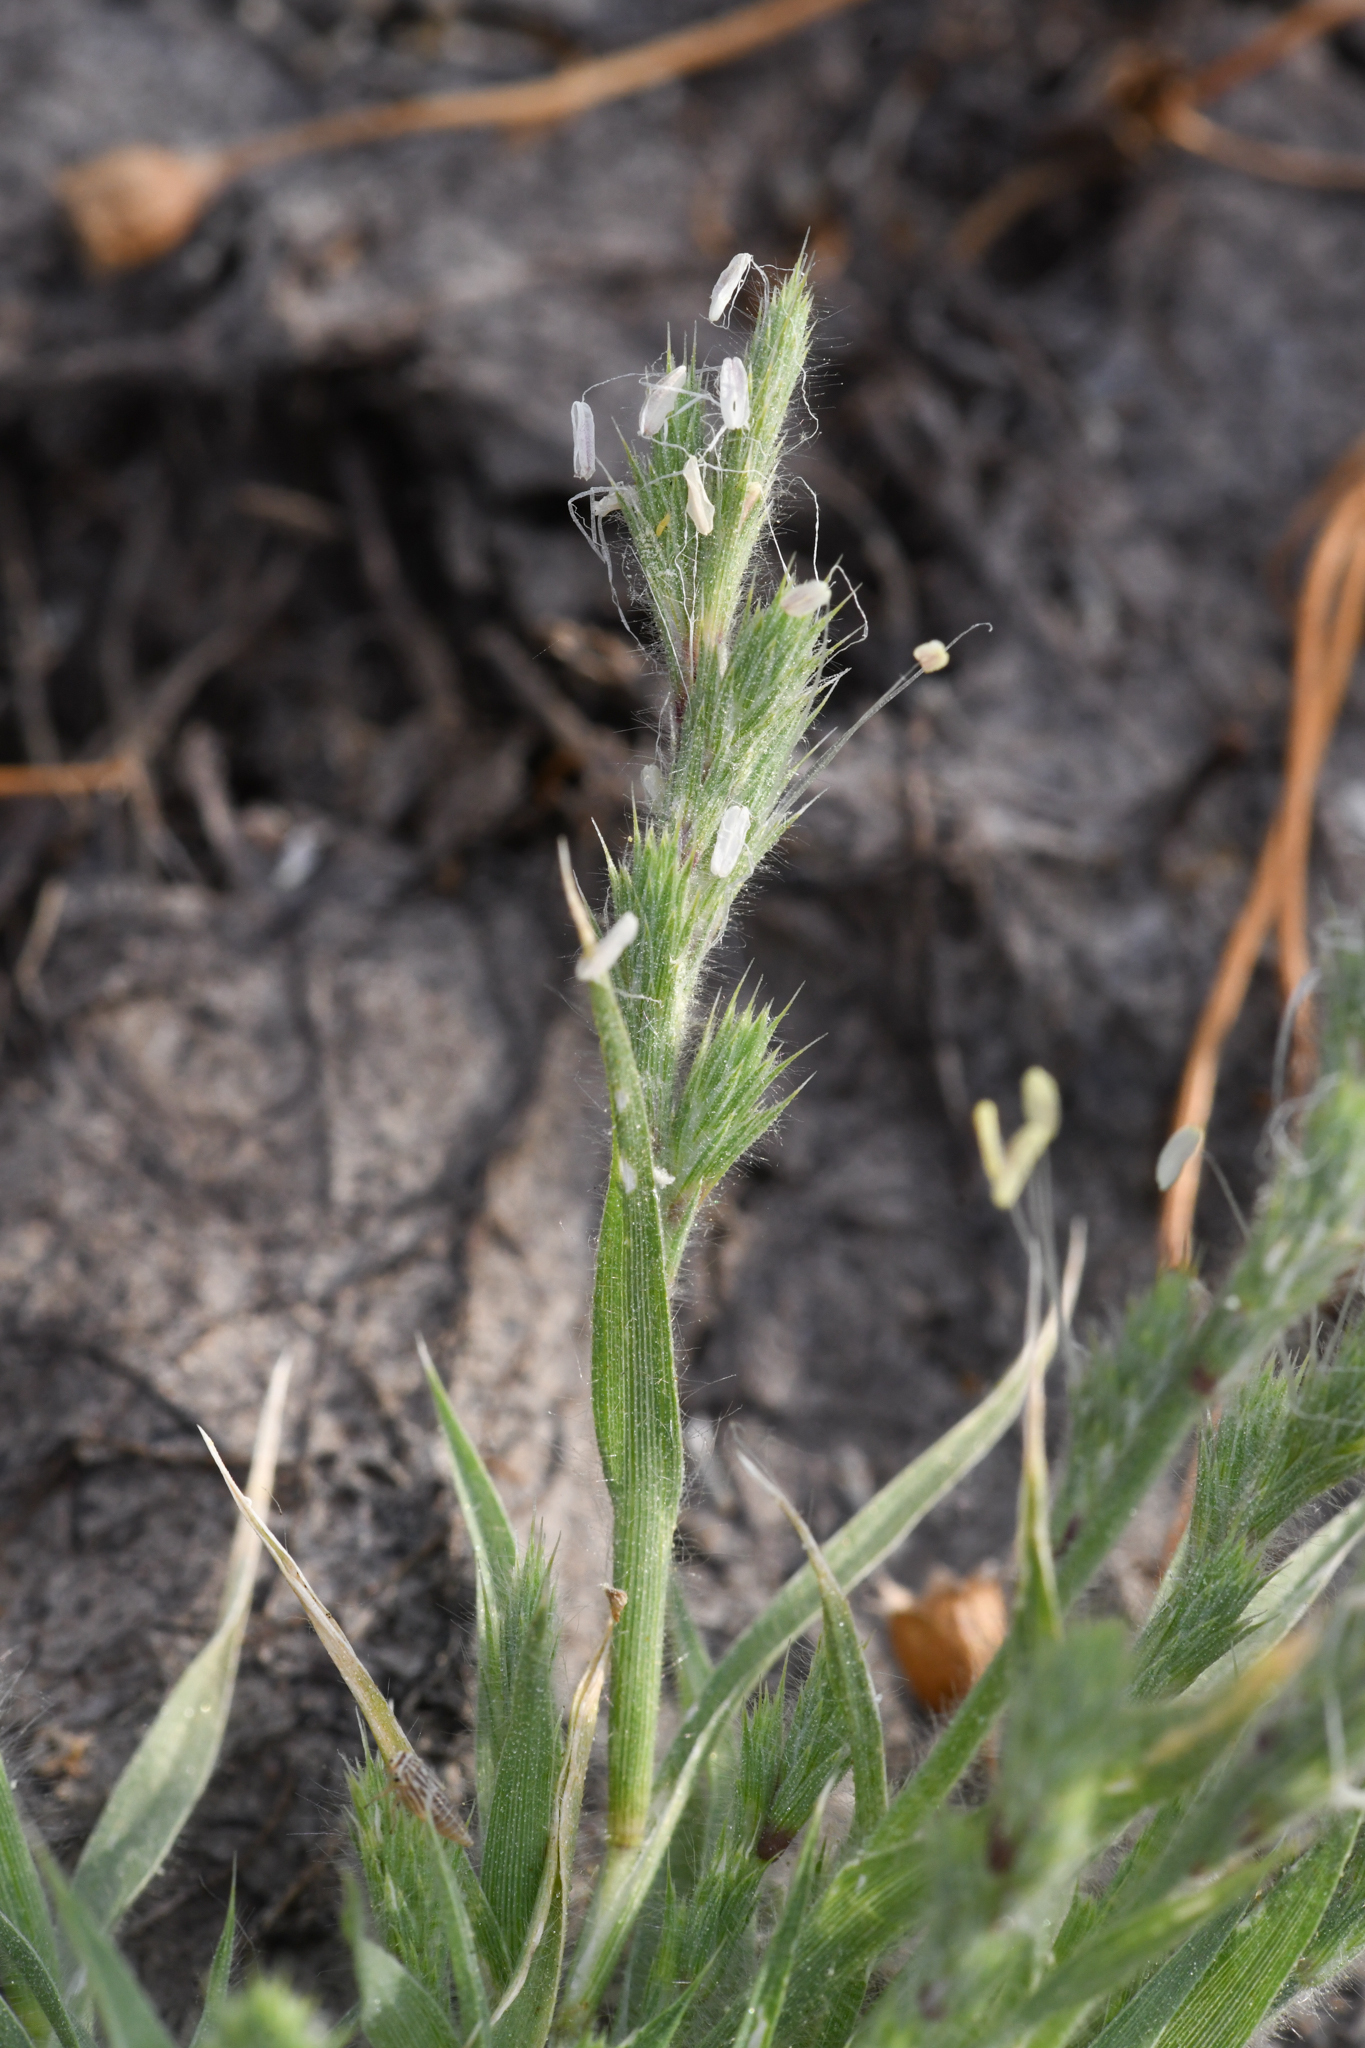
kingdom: Plantae
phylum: Tracheophyta
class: Liliopsida
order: Poales
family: Poaceae
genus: Orcuttia
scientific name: Orcuttia inaequalis
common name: San joaquin valley orcutt grass
